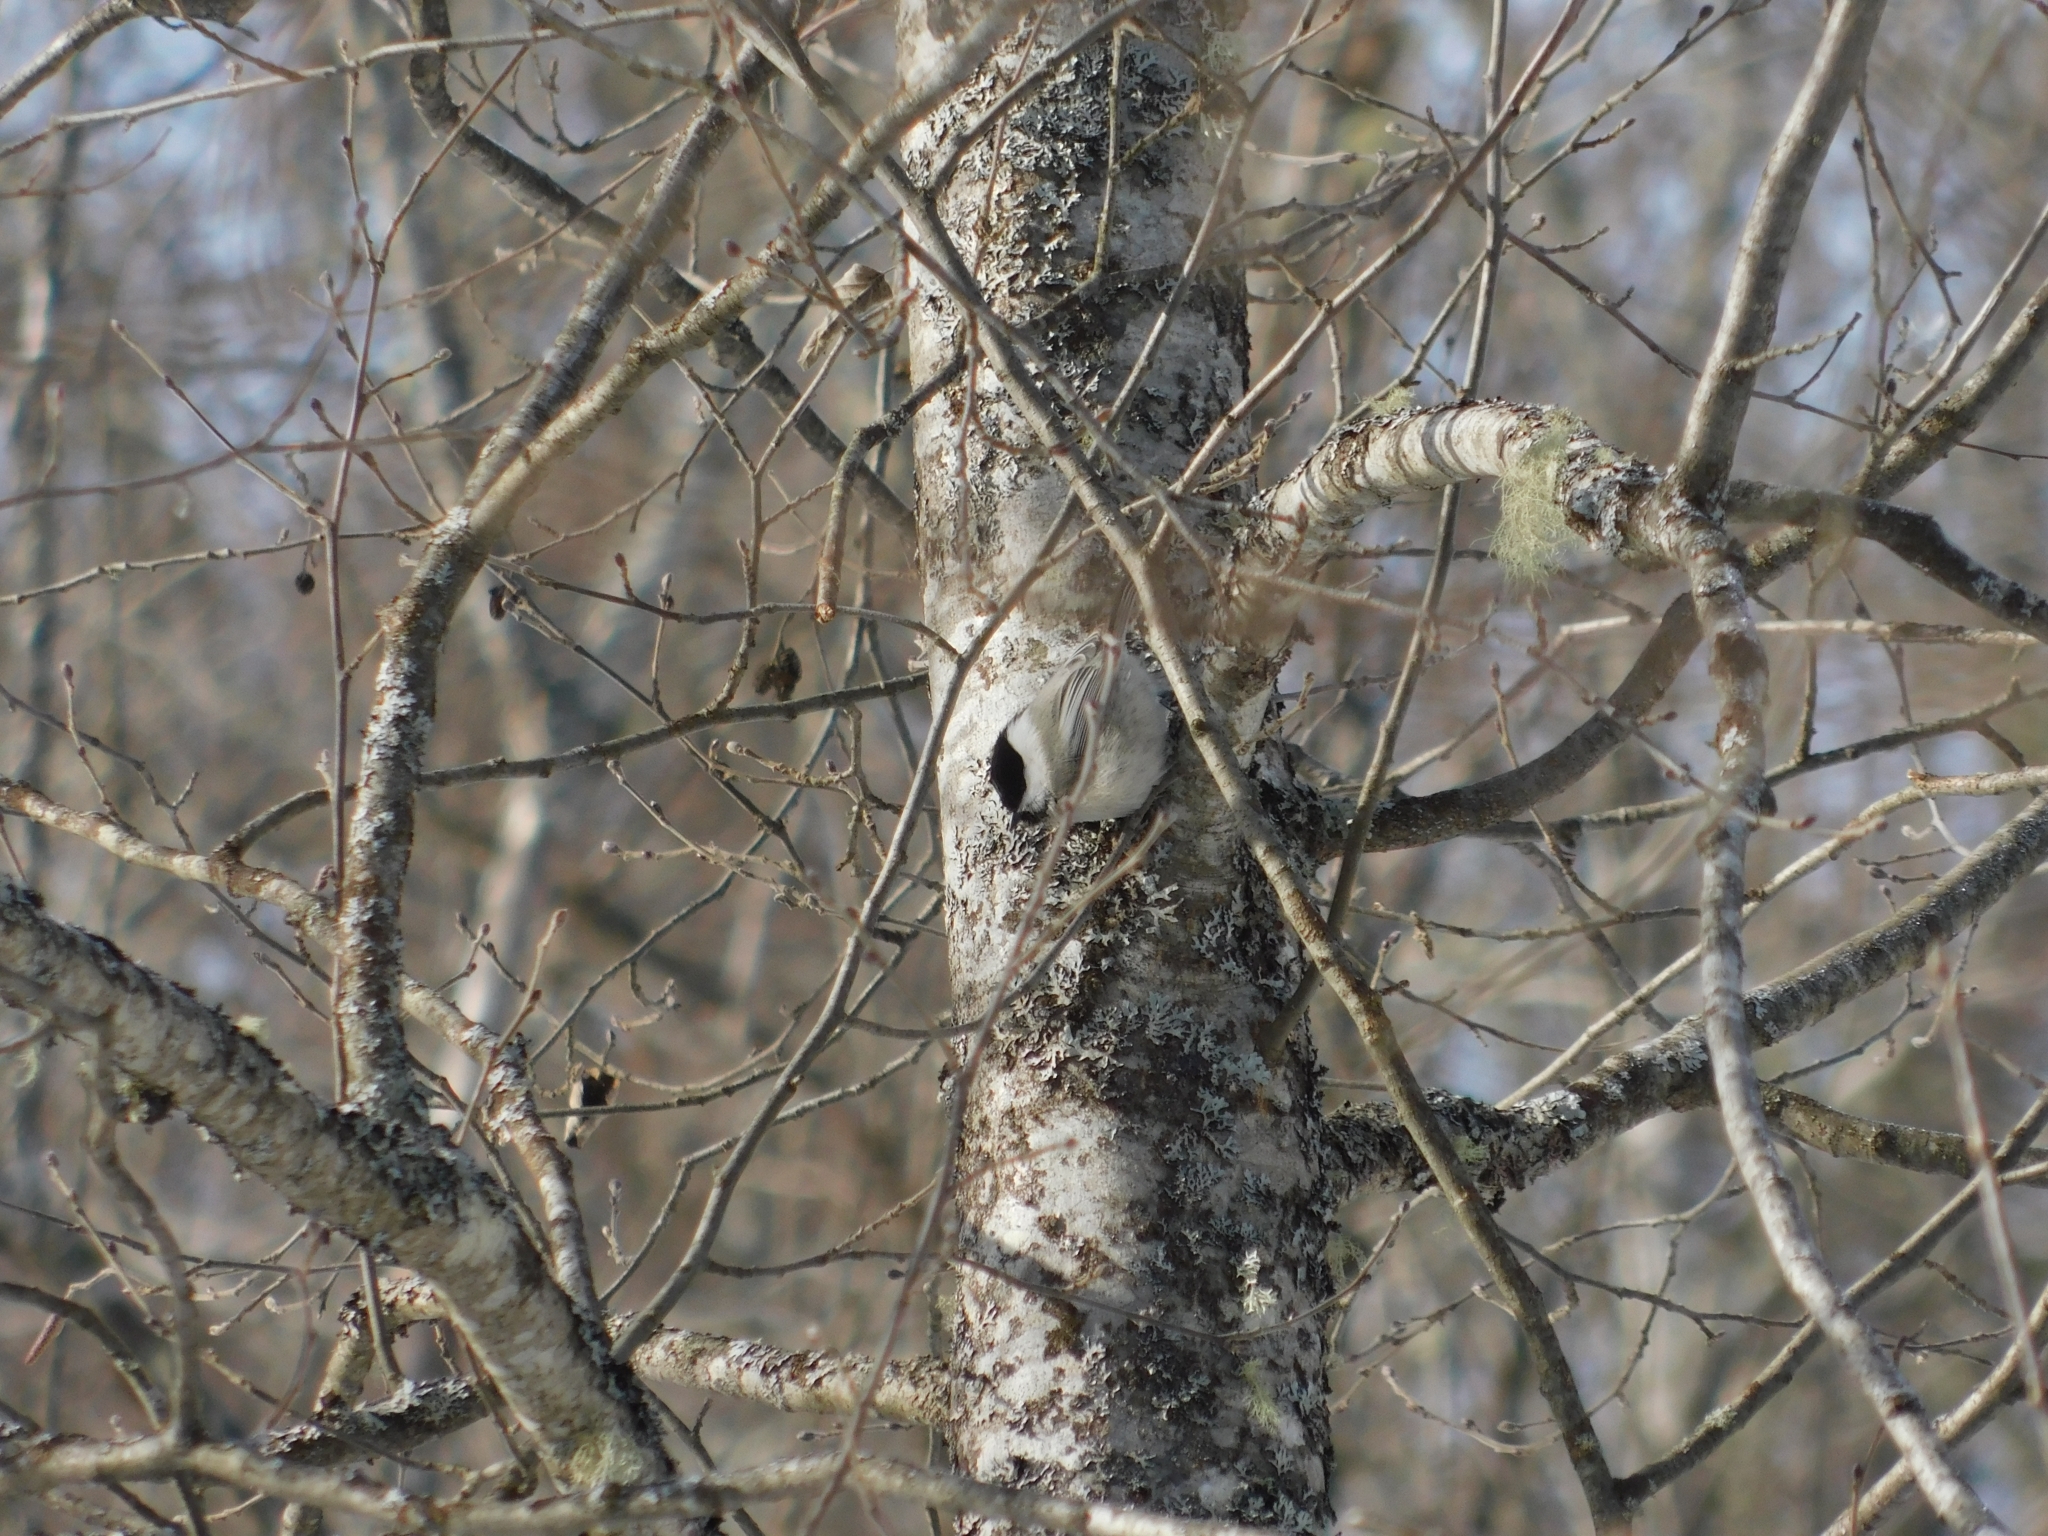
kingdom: Animalia
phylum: Chordata
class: Aves
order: Passeriformes
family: Paridae
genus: Poecile
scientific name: Poecile montanus
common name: Willow tit
